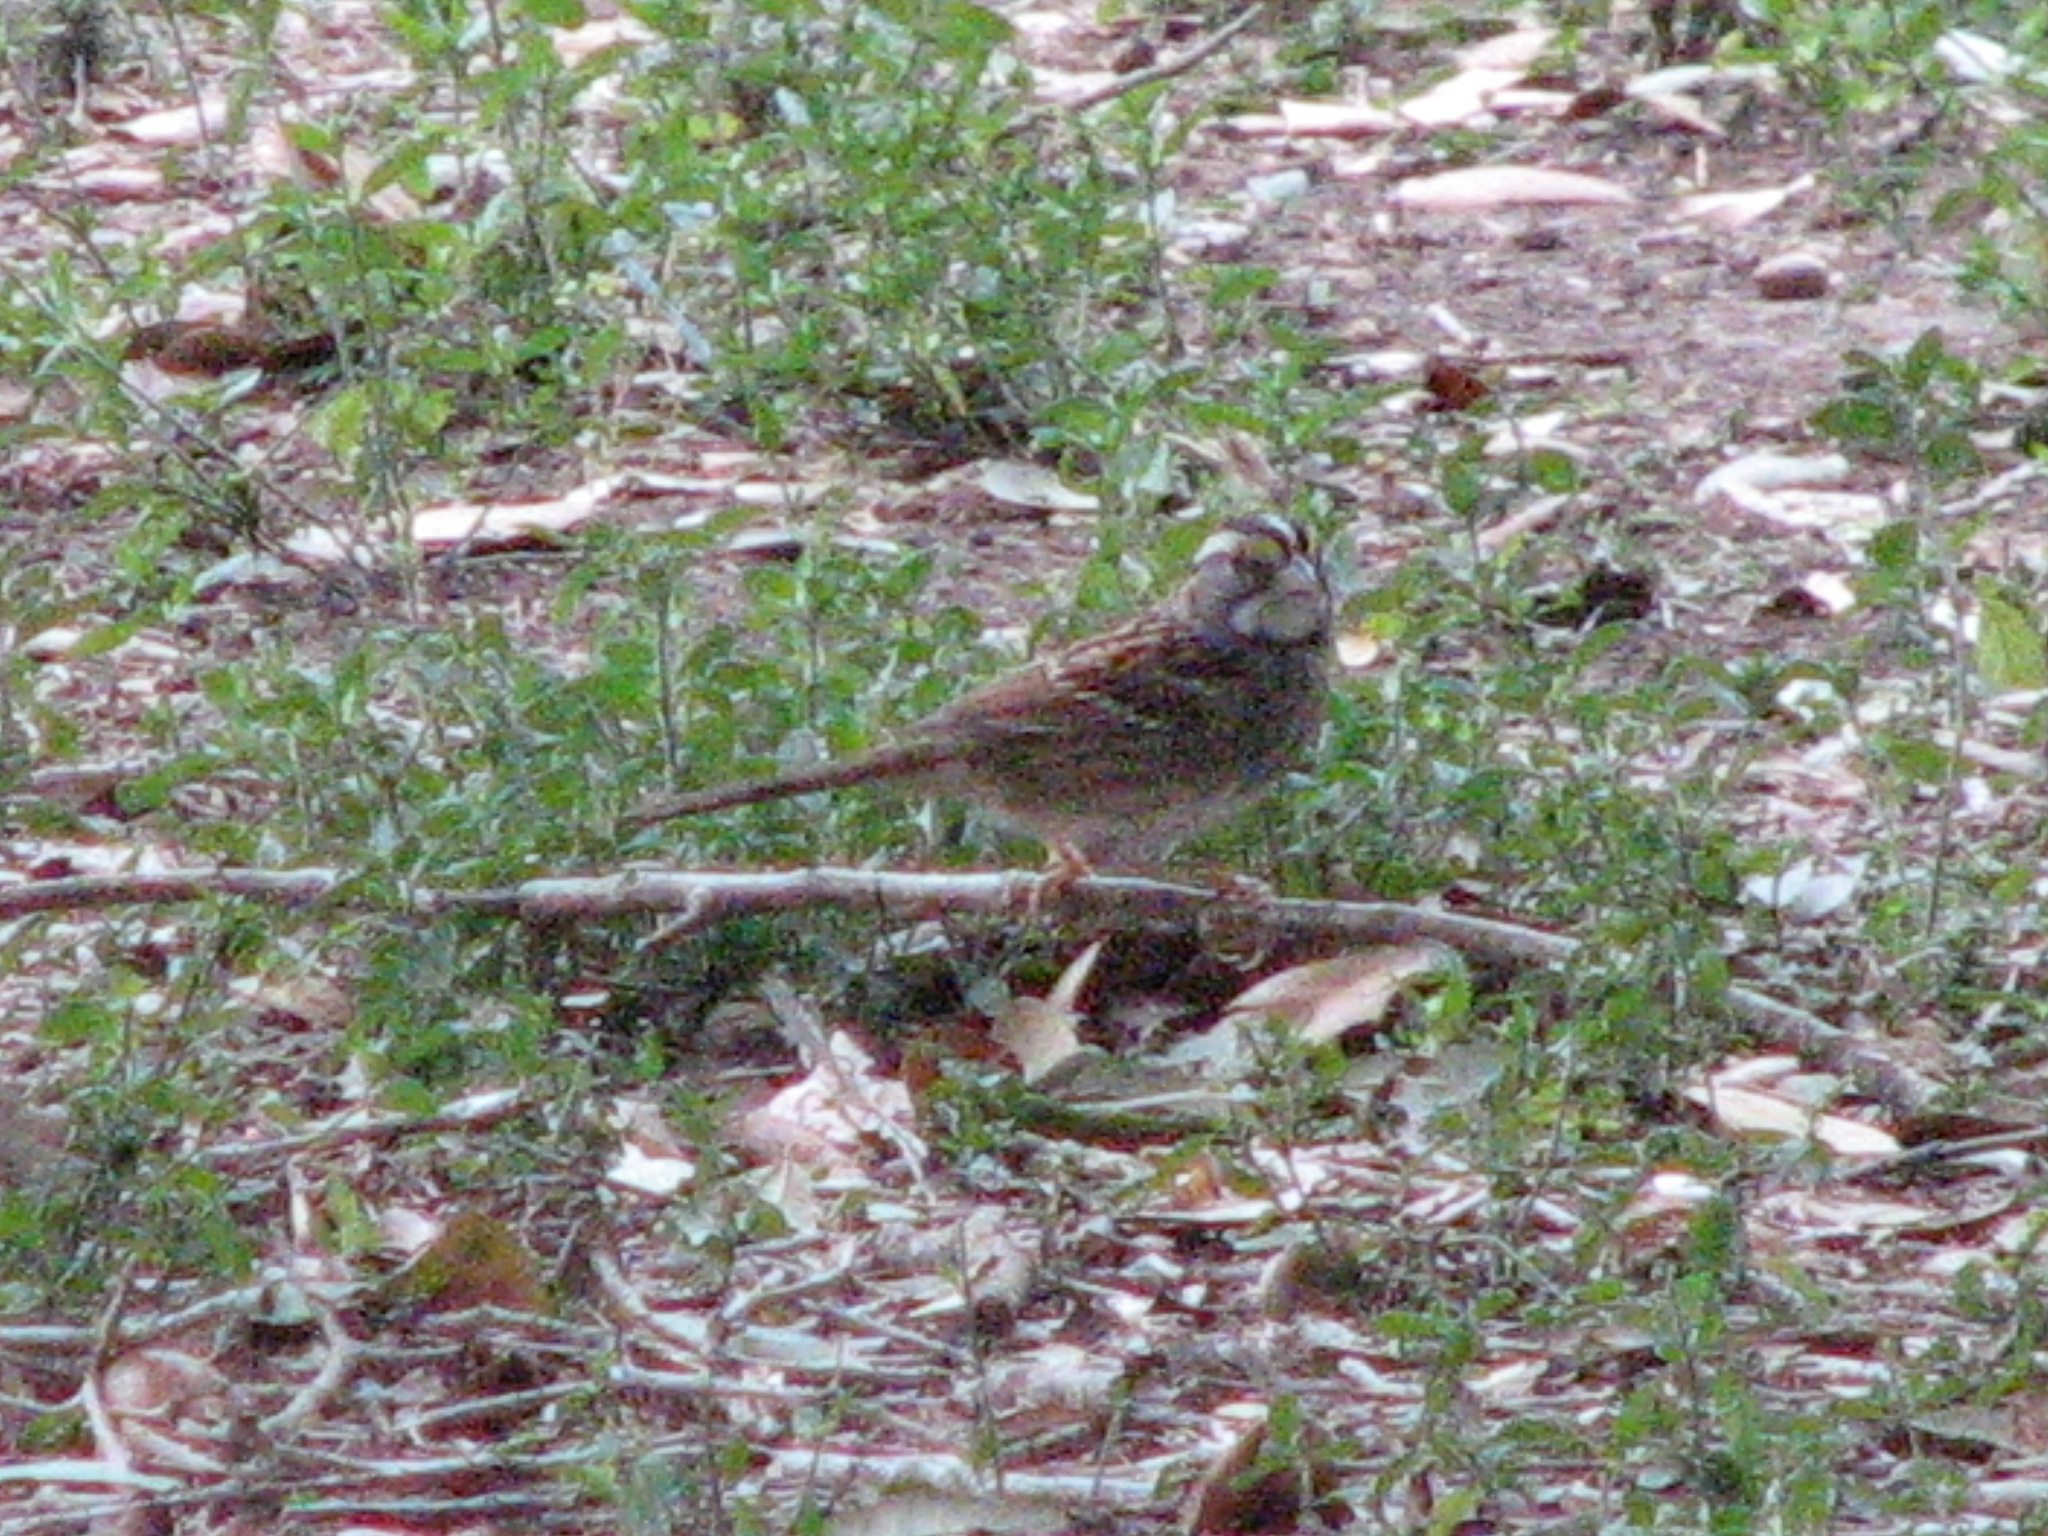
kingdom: Animalia
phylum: Chordata
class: Aves
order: Passeriformes
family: Passerellidae
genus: Zonotrichia
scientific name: Zonotrichia albicollis
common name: White-throated sparrow
